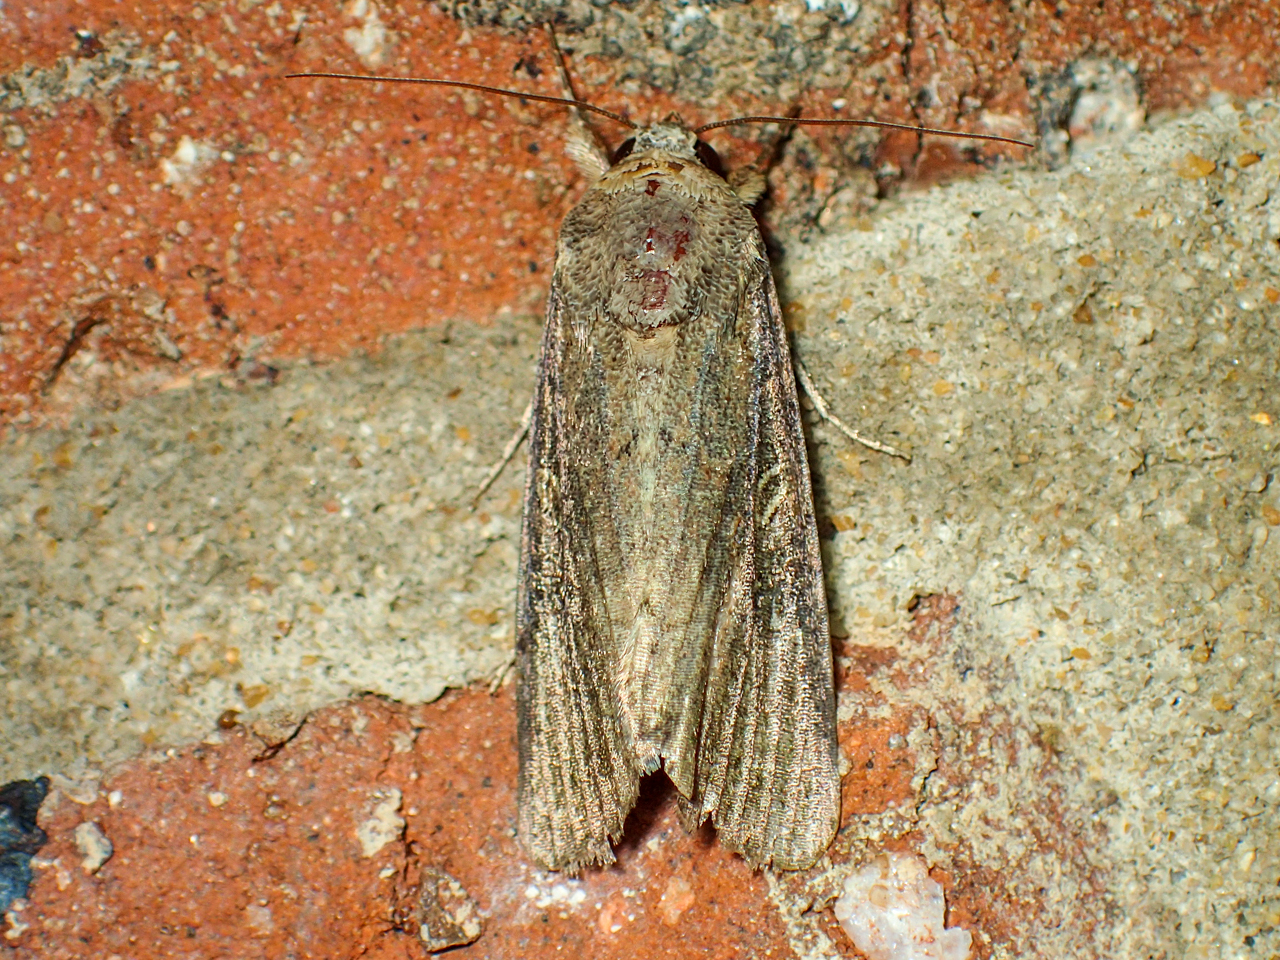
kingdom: Animalia
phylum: Arthropoda
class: Insecta
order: Lepidoptera
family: Noctuidae
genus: Spodoptera
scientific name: Spodoptera frugiperda
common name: Fall armyworm
